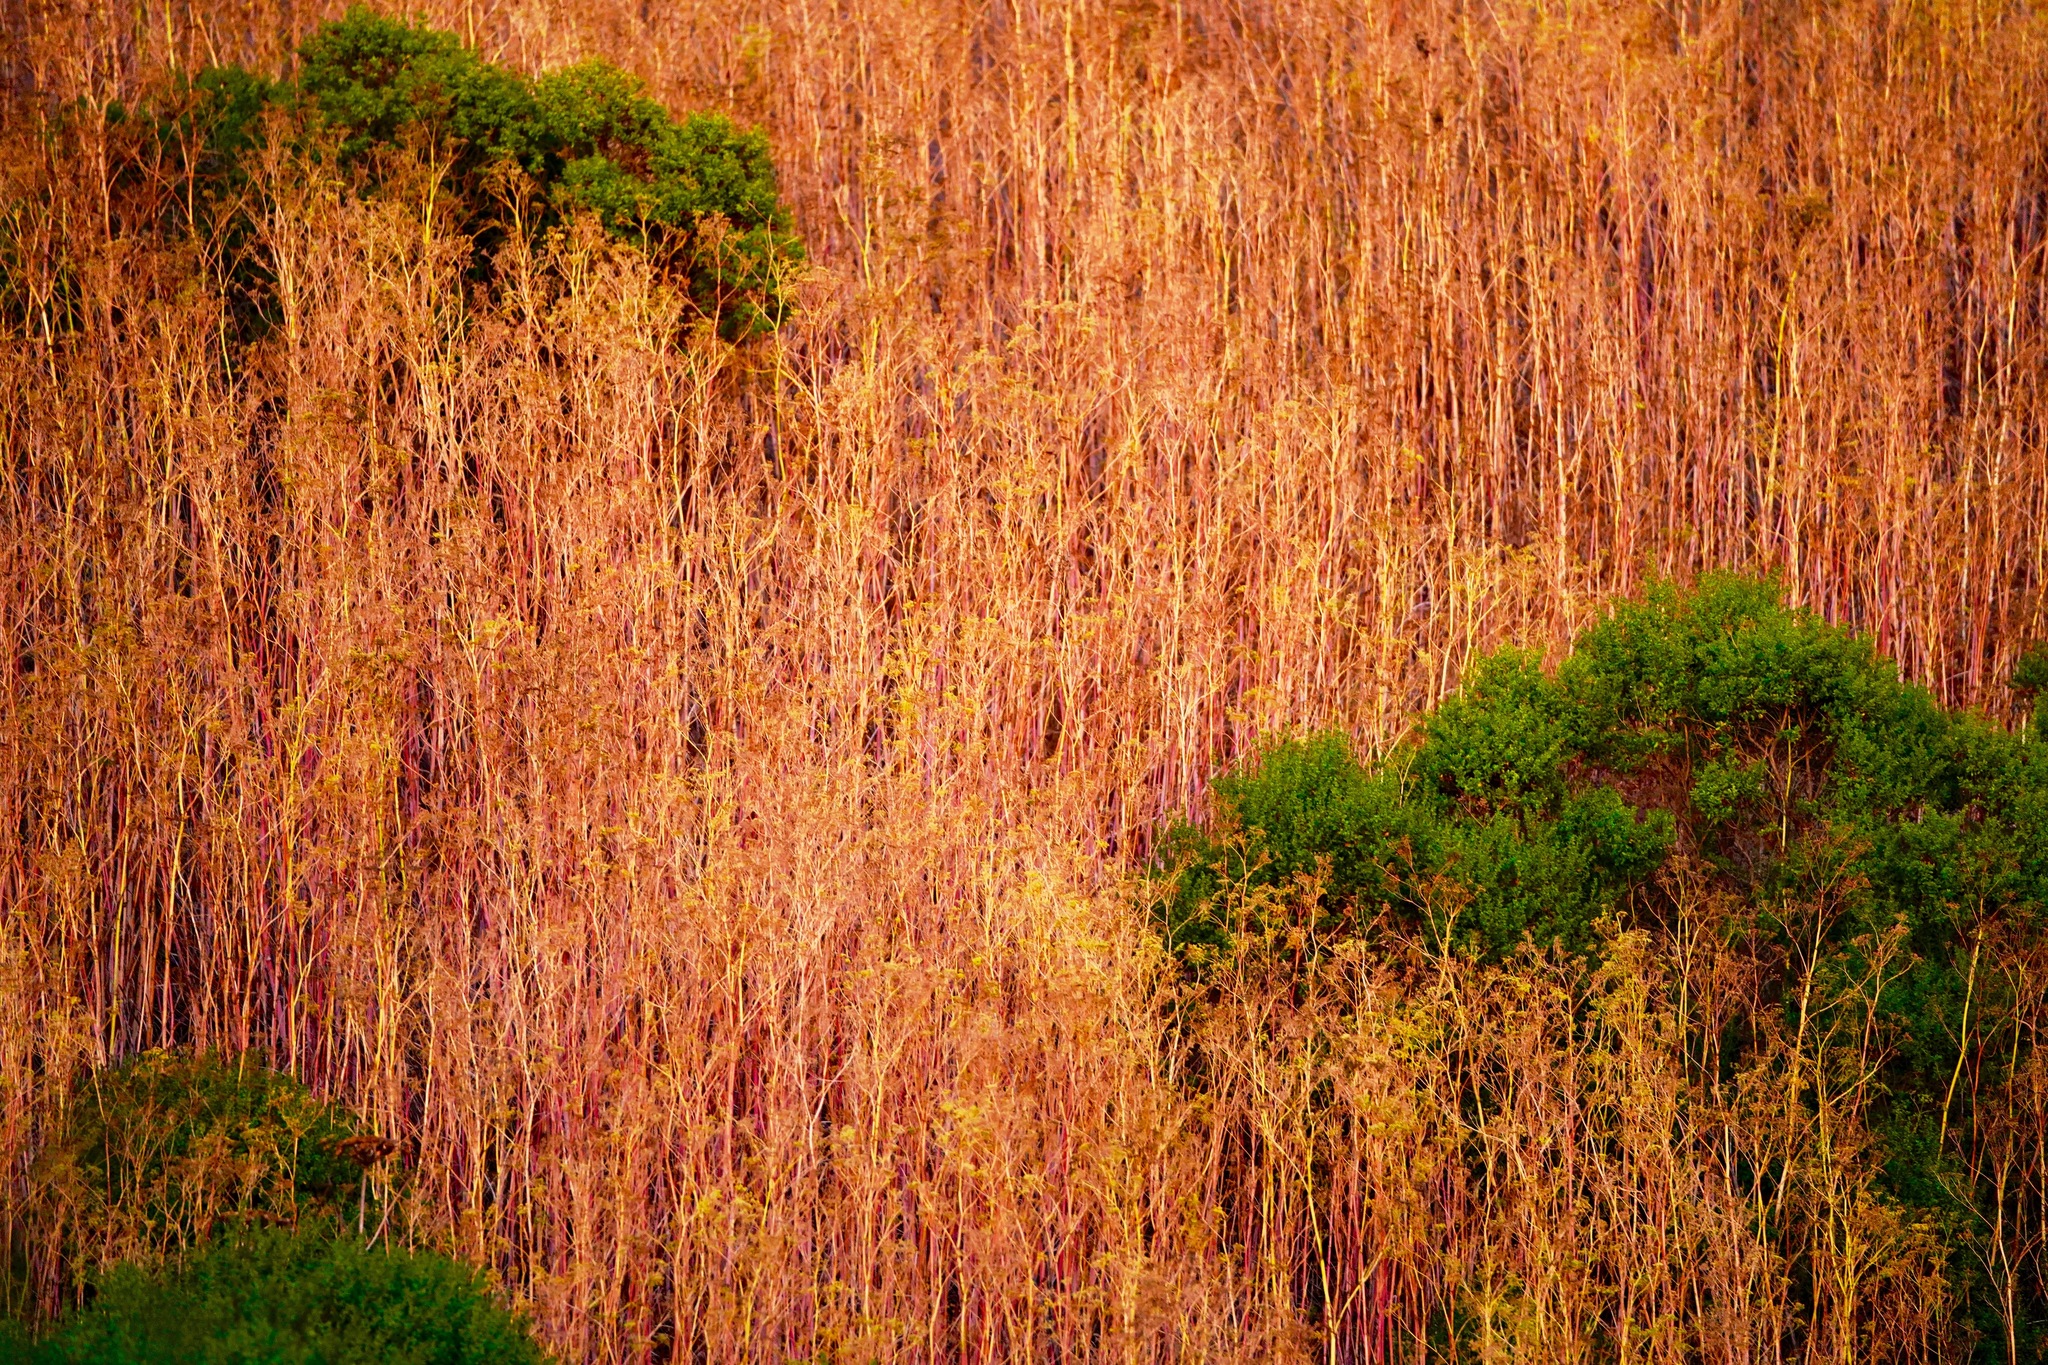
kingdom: Plantae
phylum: Tracheophyta
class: Magnoliopsida
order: Apiales
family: Apiaceae
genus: Conium
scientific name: Conium maculatum
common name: Hemlock
